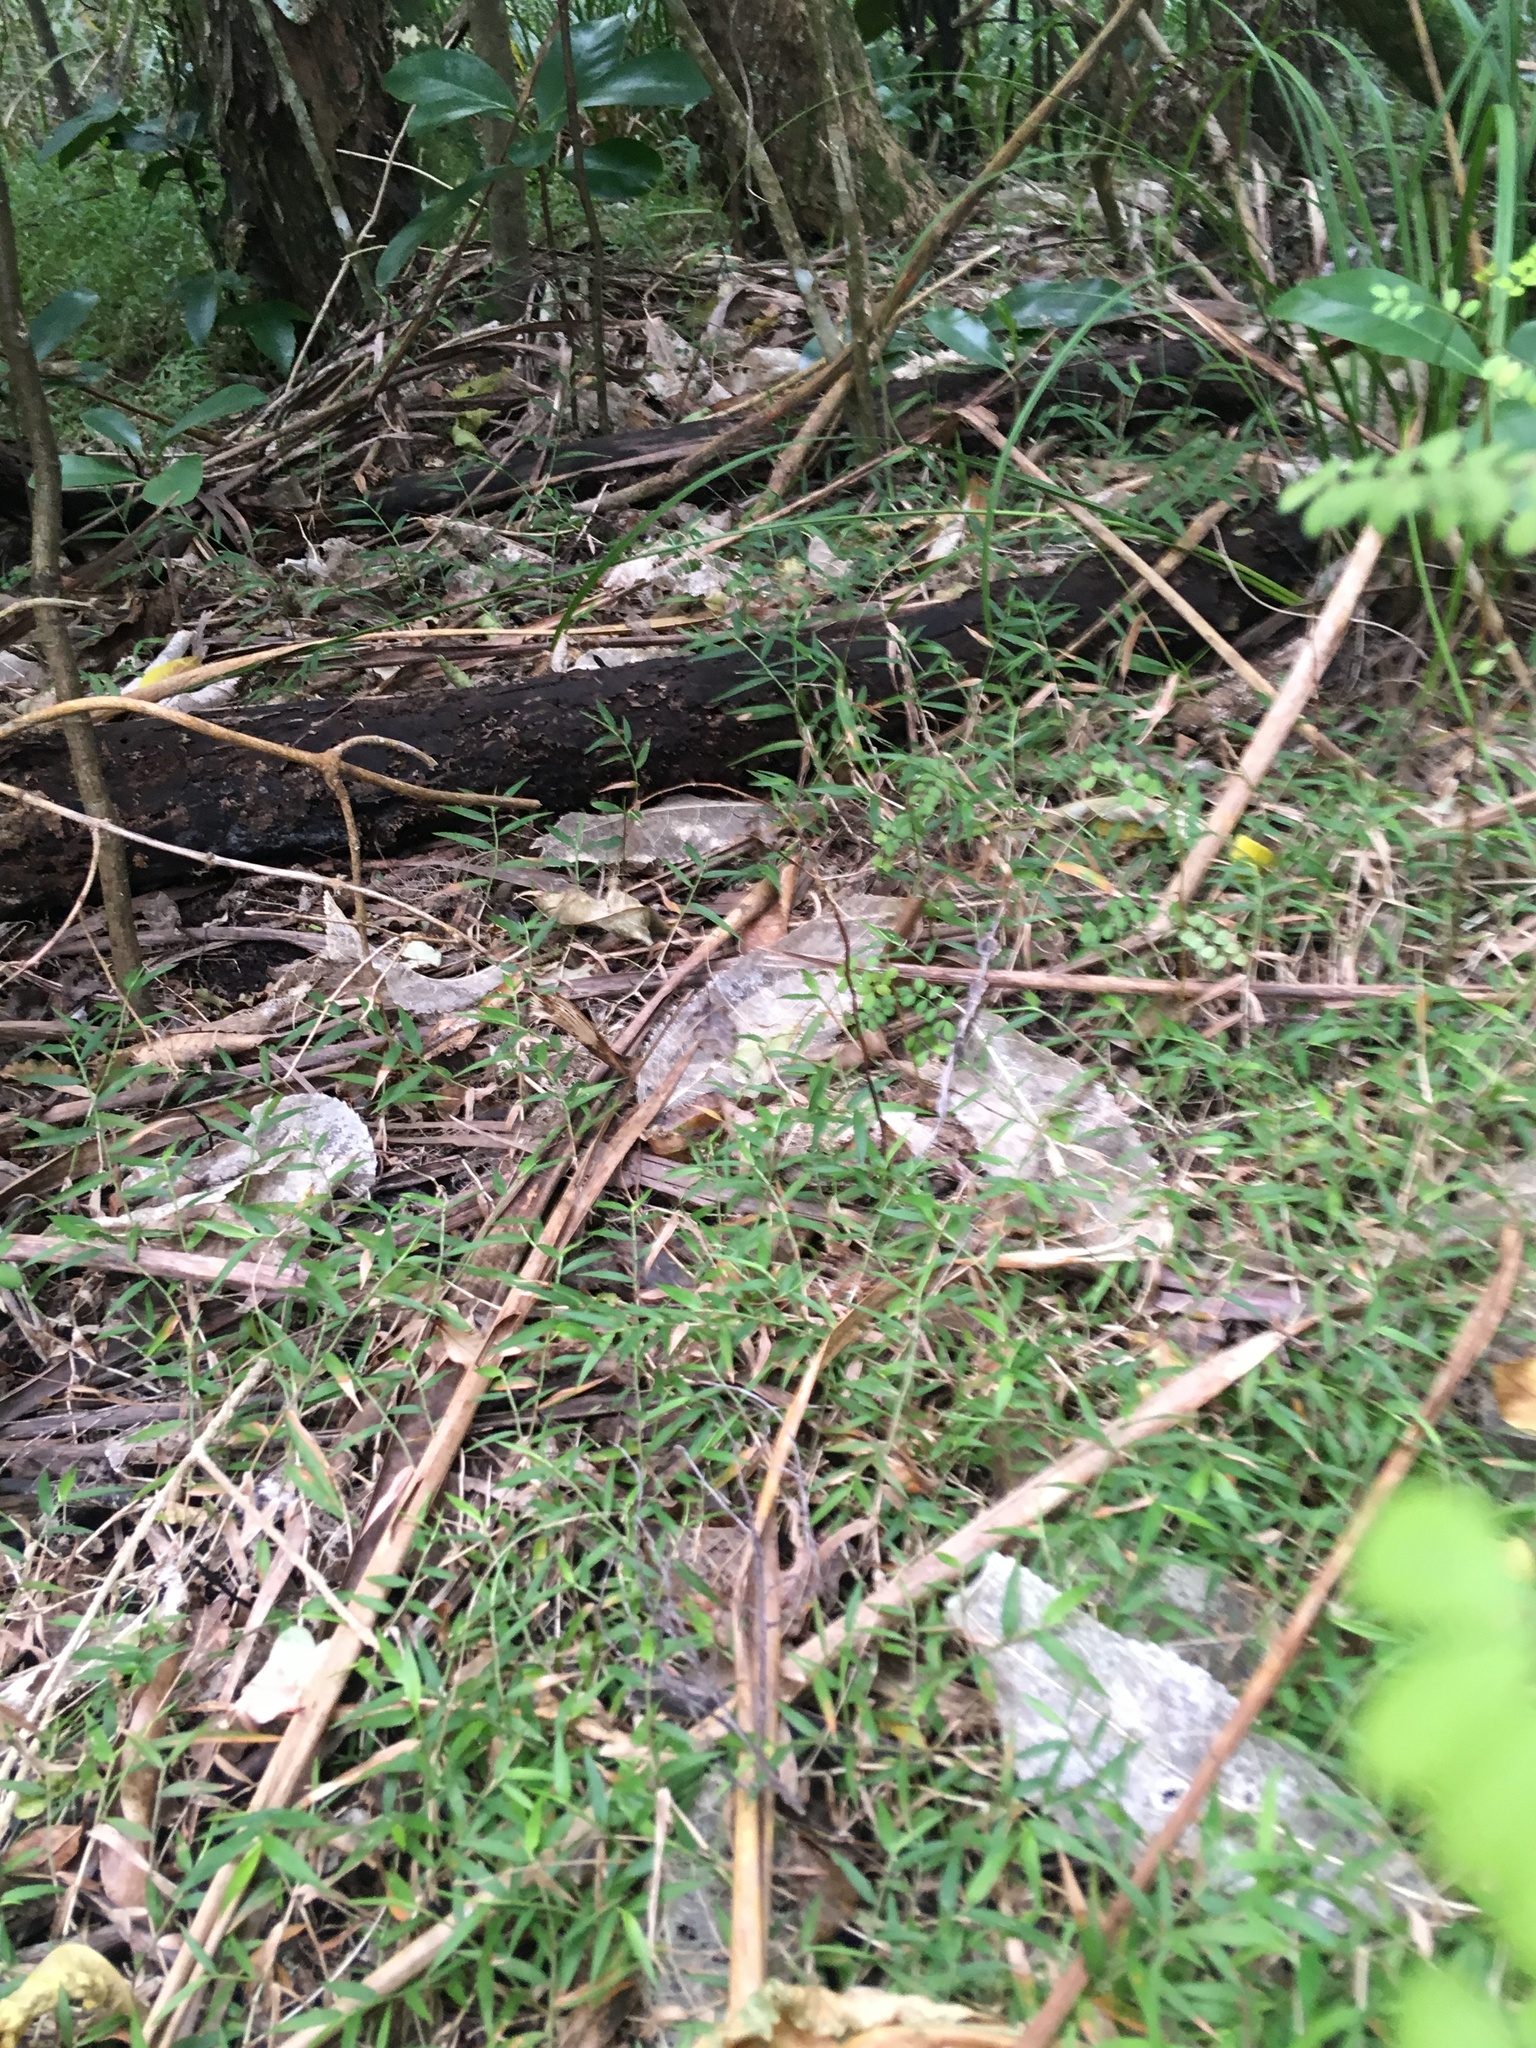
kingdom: Plantae
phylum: Tracheophyta
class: Liliopsida
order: Poales
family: Poaceae
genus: Oplismenus
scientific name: Oplismenus hirtellus
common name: Basketgrass
